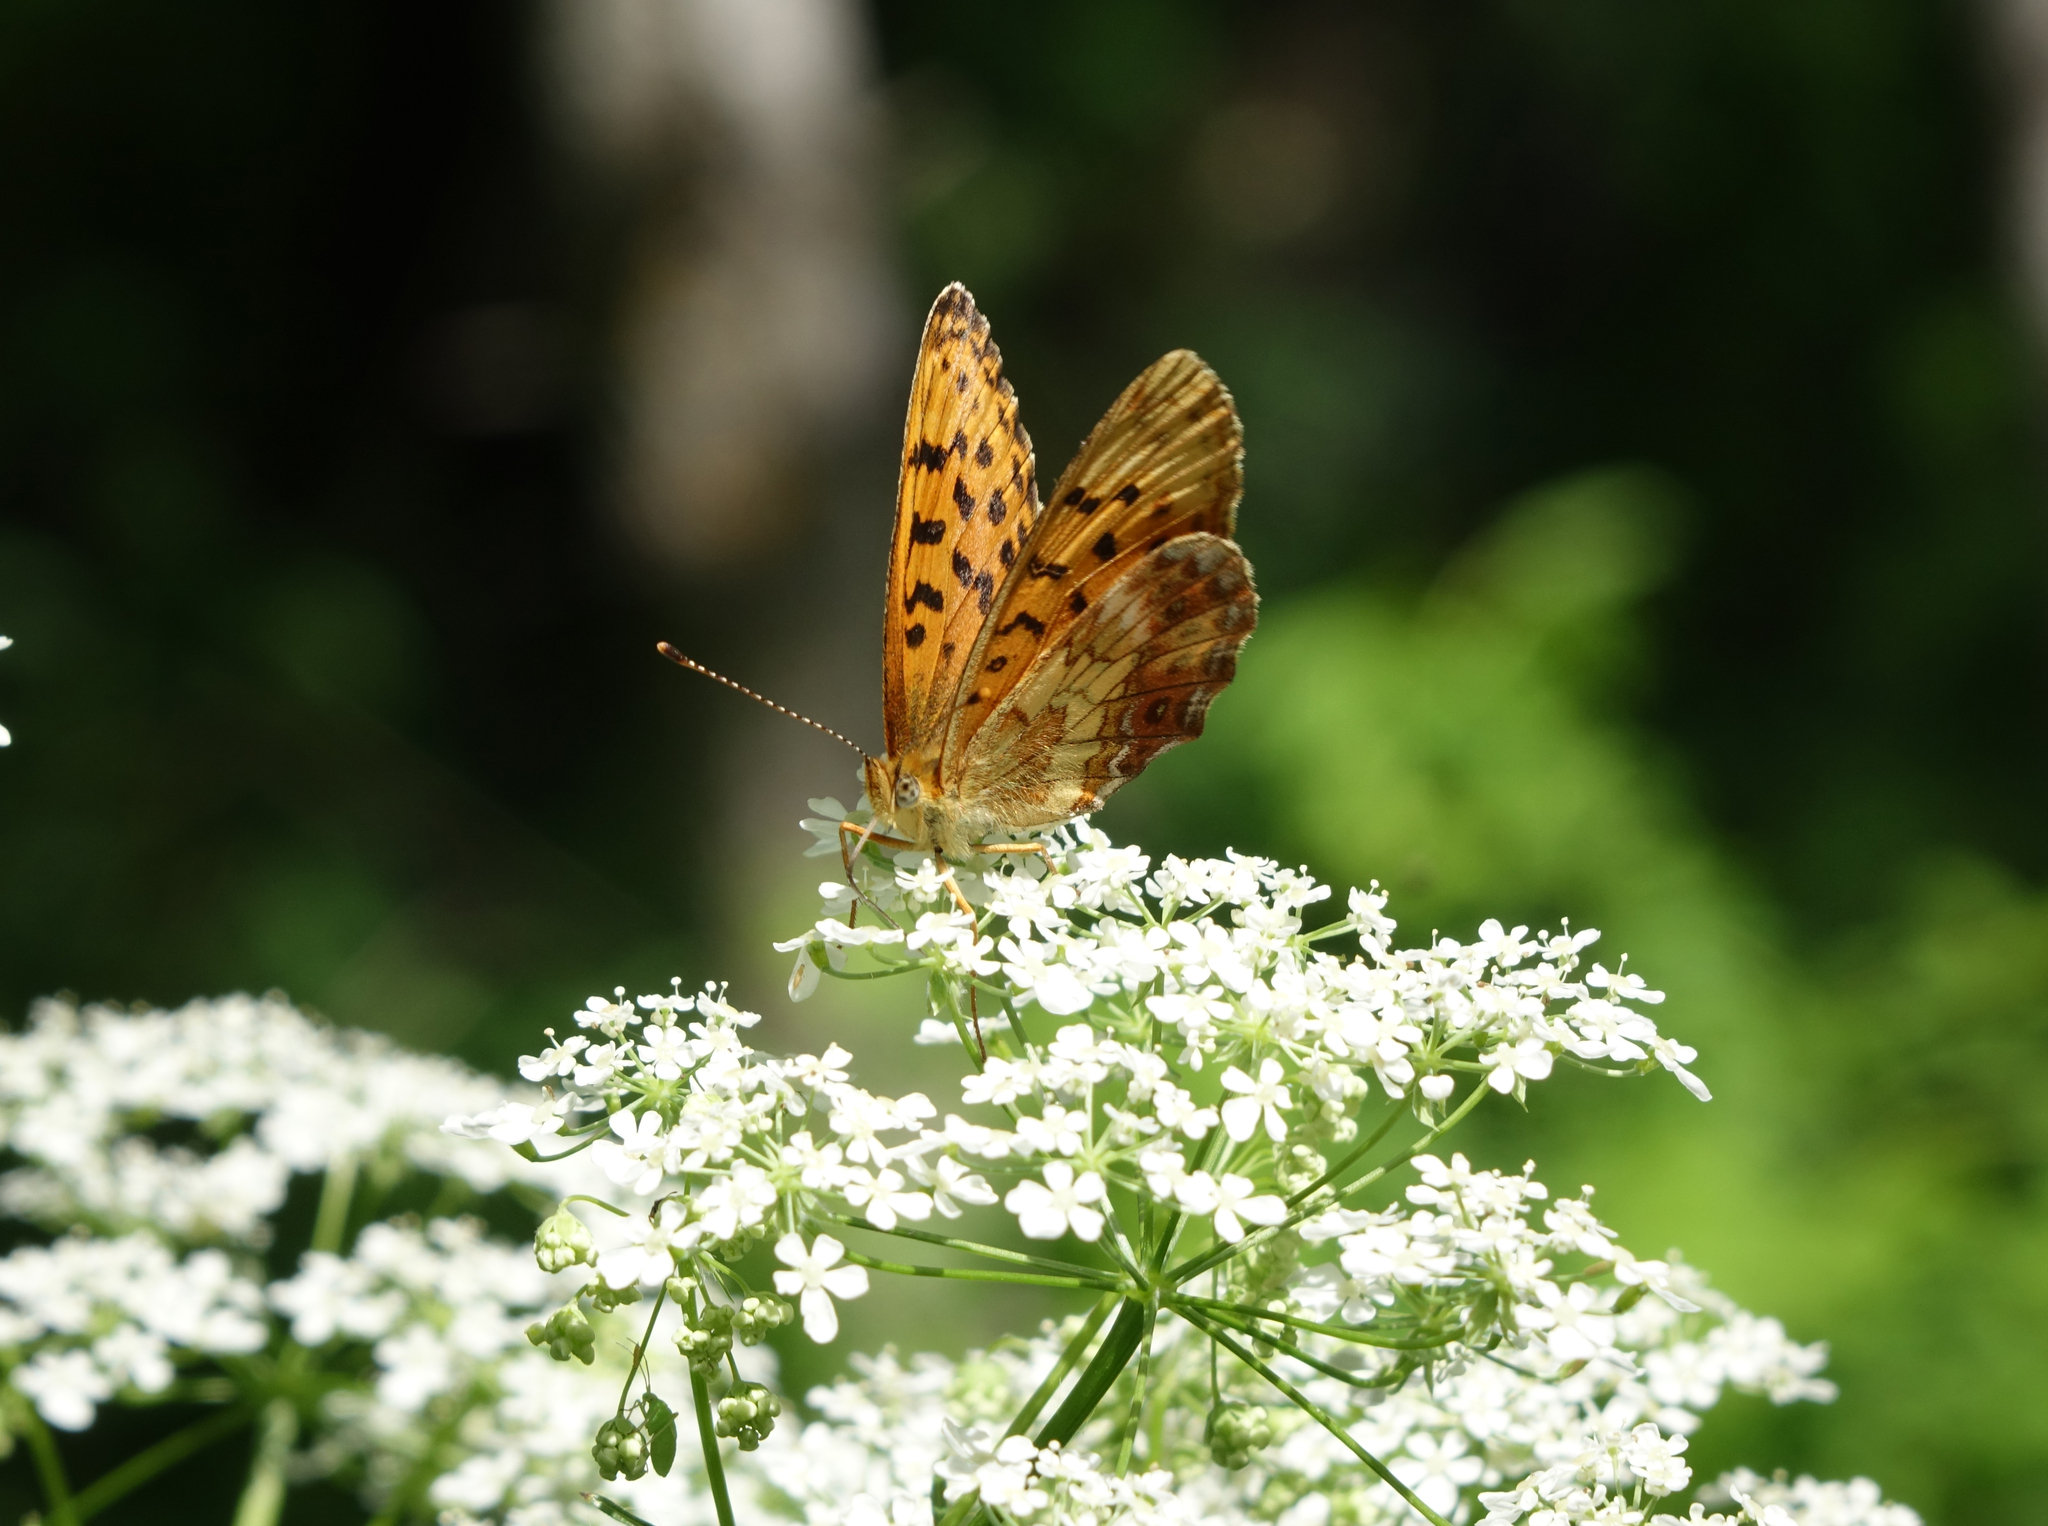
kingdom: Animalia
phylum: Arthropoda
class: Insecta
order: Lepidoptera
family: Nymphalidae
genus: Boloria
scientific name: Boloria thore
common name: Thor's fritillary
